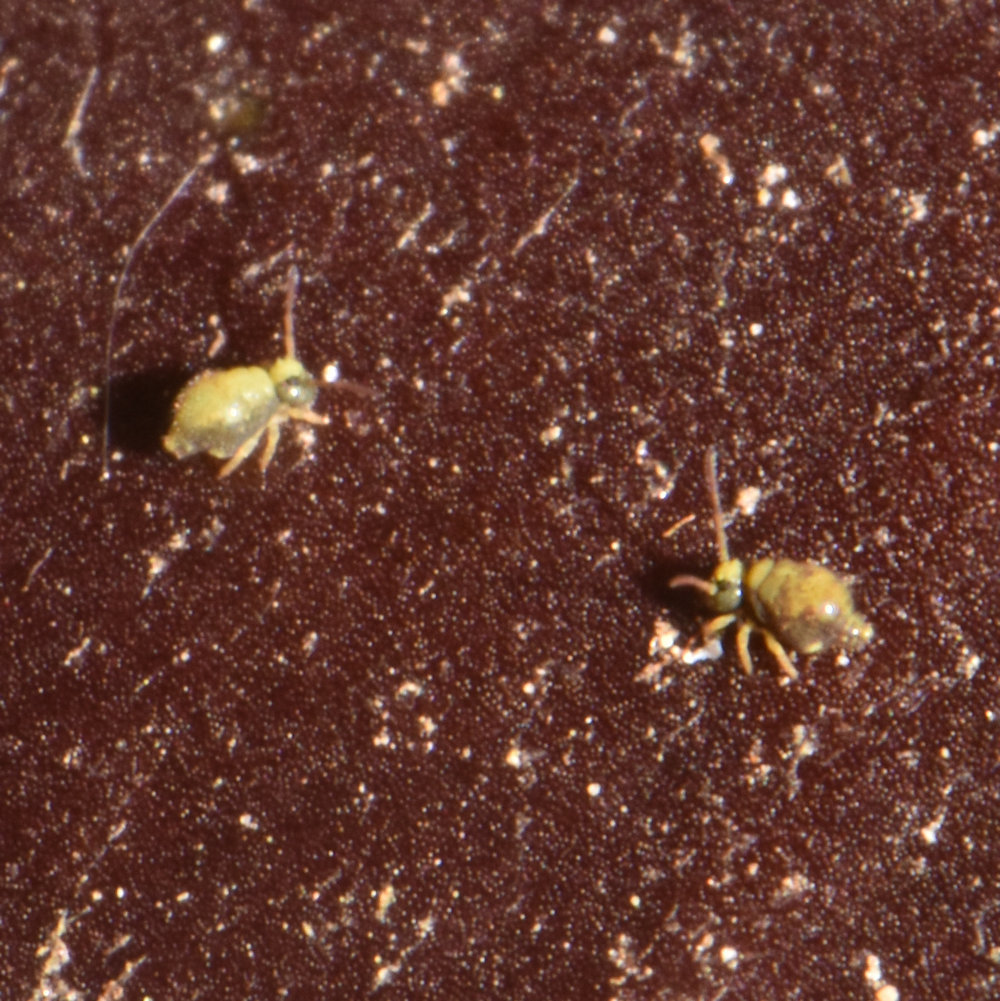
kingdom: Animalia
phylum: Arthropoda
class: Collembola
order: Symphypleona
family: Bourletiellidae
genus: Pseudobourletiella
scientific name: Pseudobourletiella spinata
